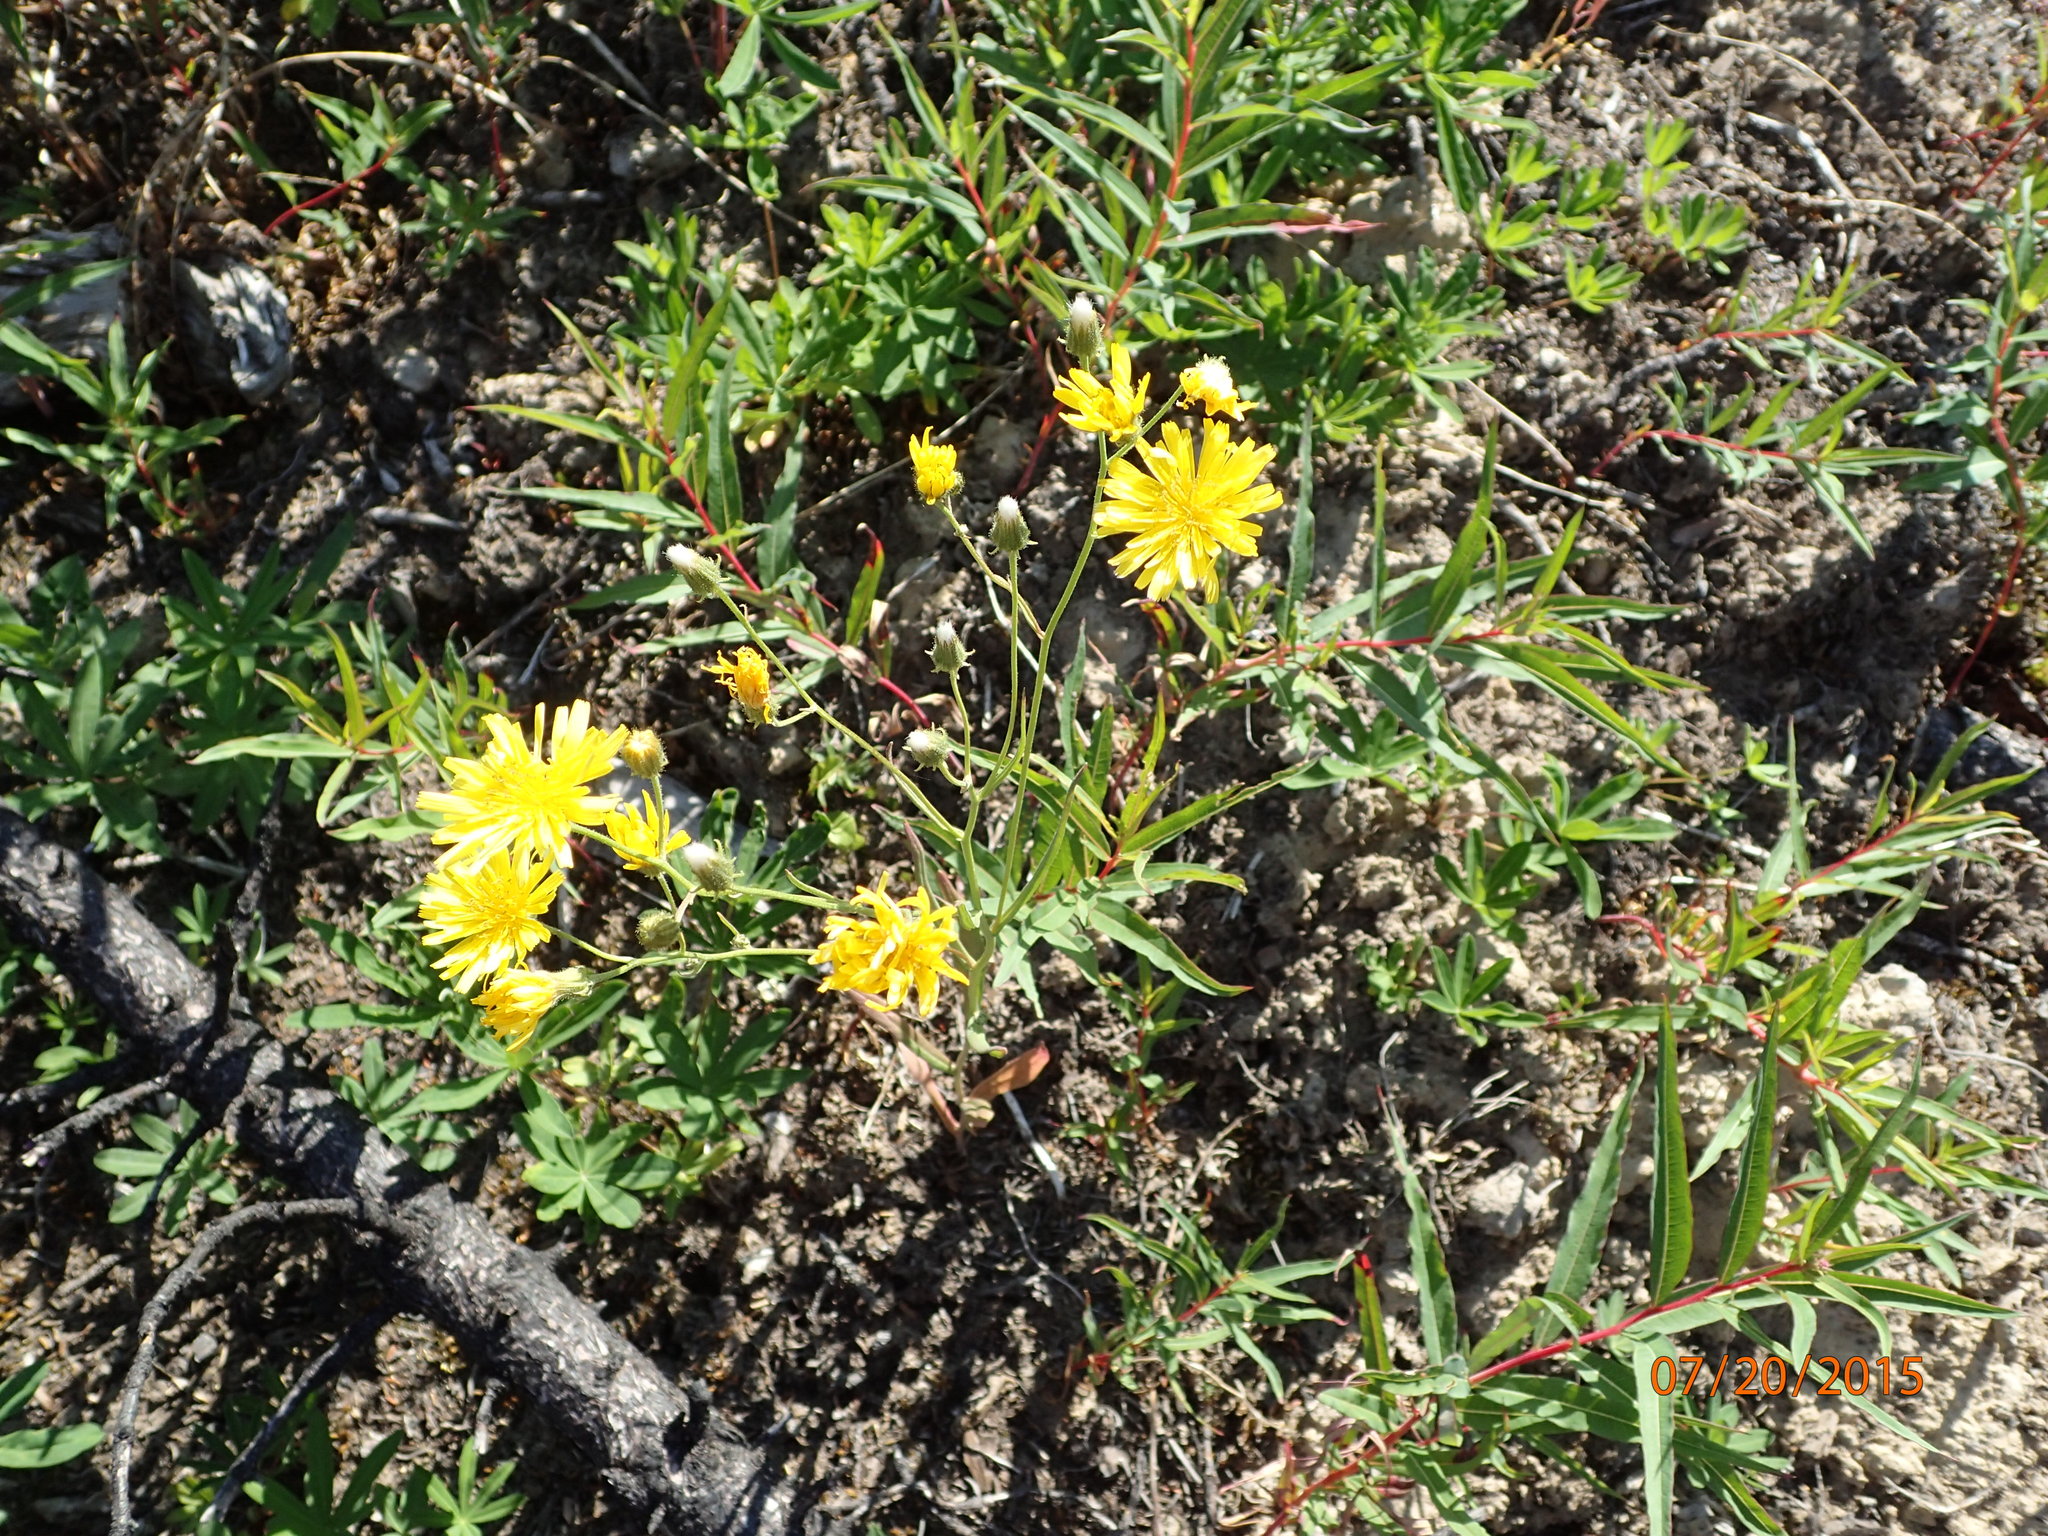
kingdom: Plantae
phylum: Tracheophyta
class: Magnoliopsida
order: Asterales
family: Asteraceae
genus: Crepis
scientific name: Crepis tectorum
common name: Narrow-leaved hawk's-beard
